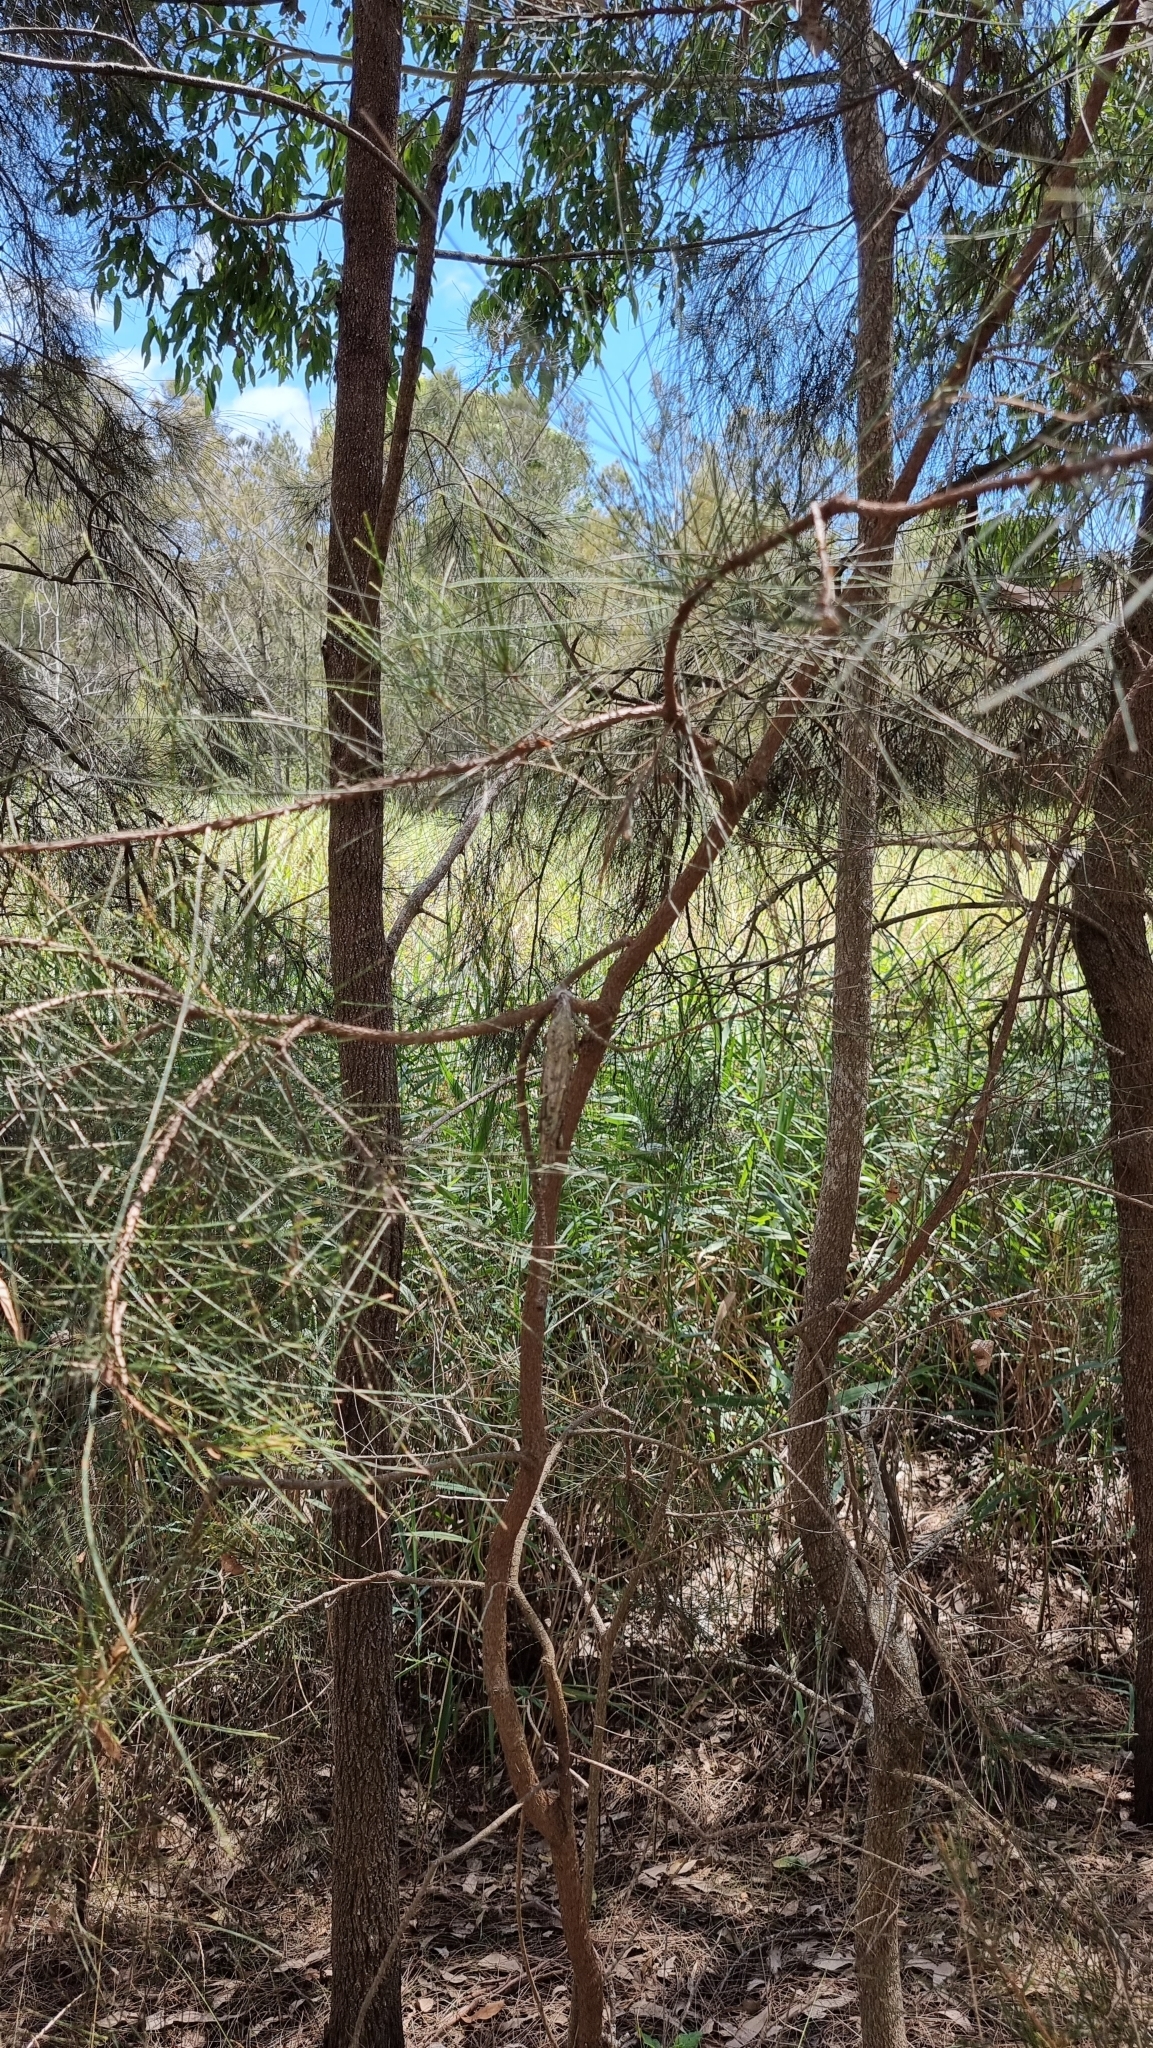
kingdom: Animalia
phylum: Arthropoda
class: Insecta
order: Lepidoptera
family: Psychidae
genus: Metura
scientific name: Metura elongatus
